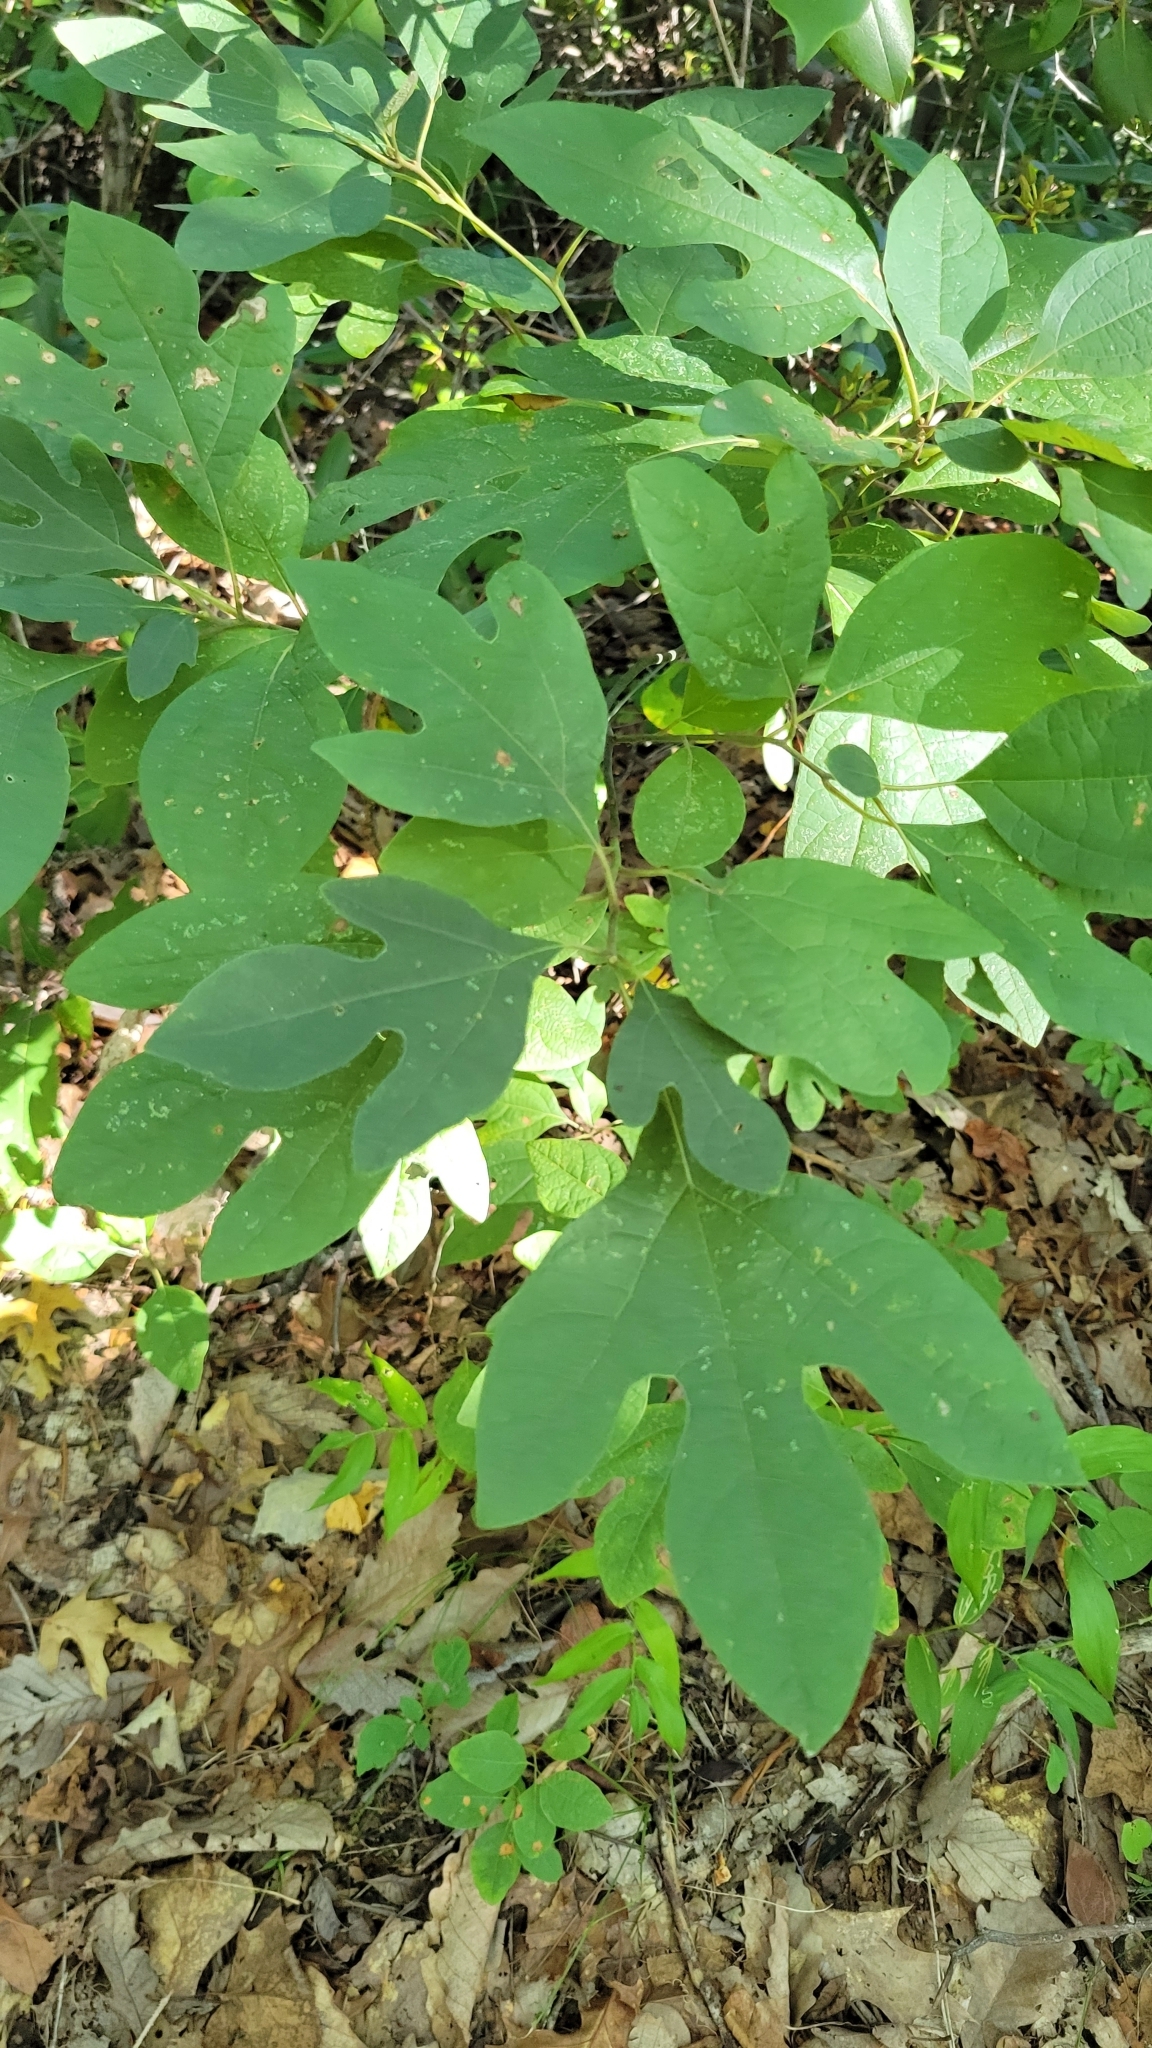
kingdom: Plantae
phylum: Tracheophyta
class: Magnoliopsida
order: Laurales
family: Lauraceae
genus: Sassafras
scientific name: Sassafras albidum
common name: Sassafras
